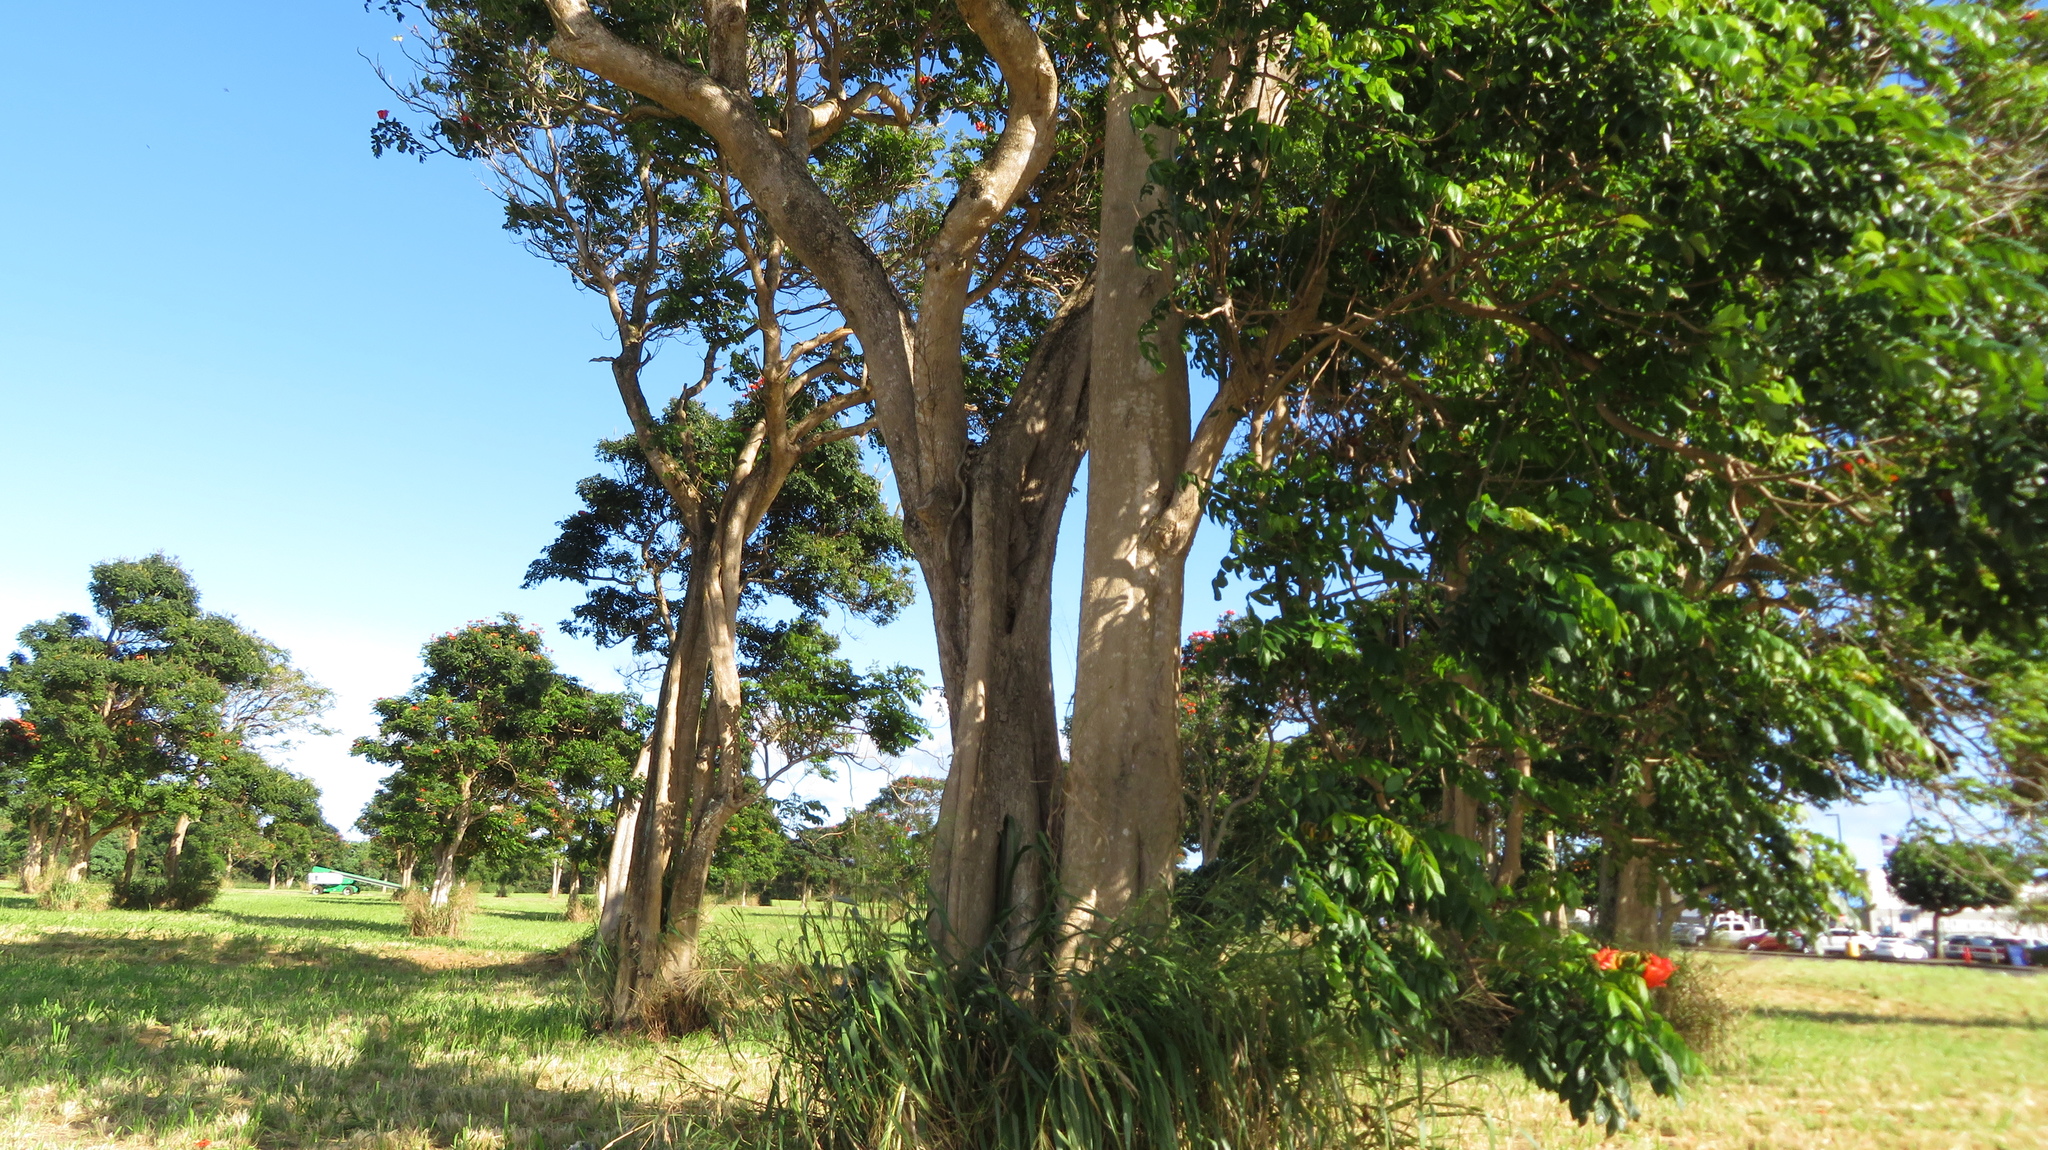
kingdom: Plantae
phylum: Tracheophyta
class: Magnoliopsida
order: Lamiales
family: Bignoniaceae
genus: Spathodea
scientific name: Spathodea campanulata
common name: African tuliptree
